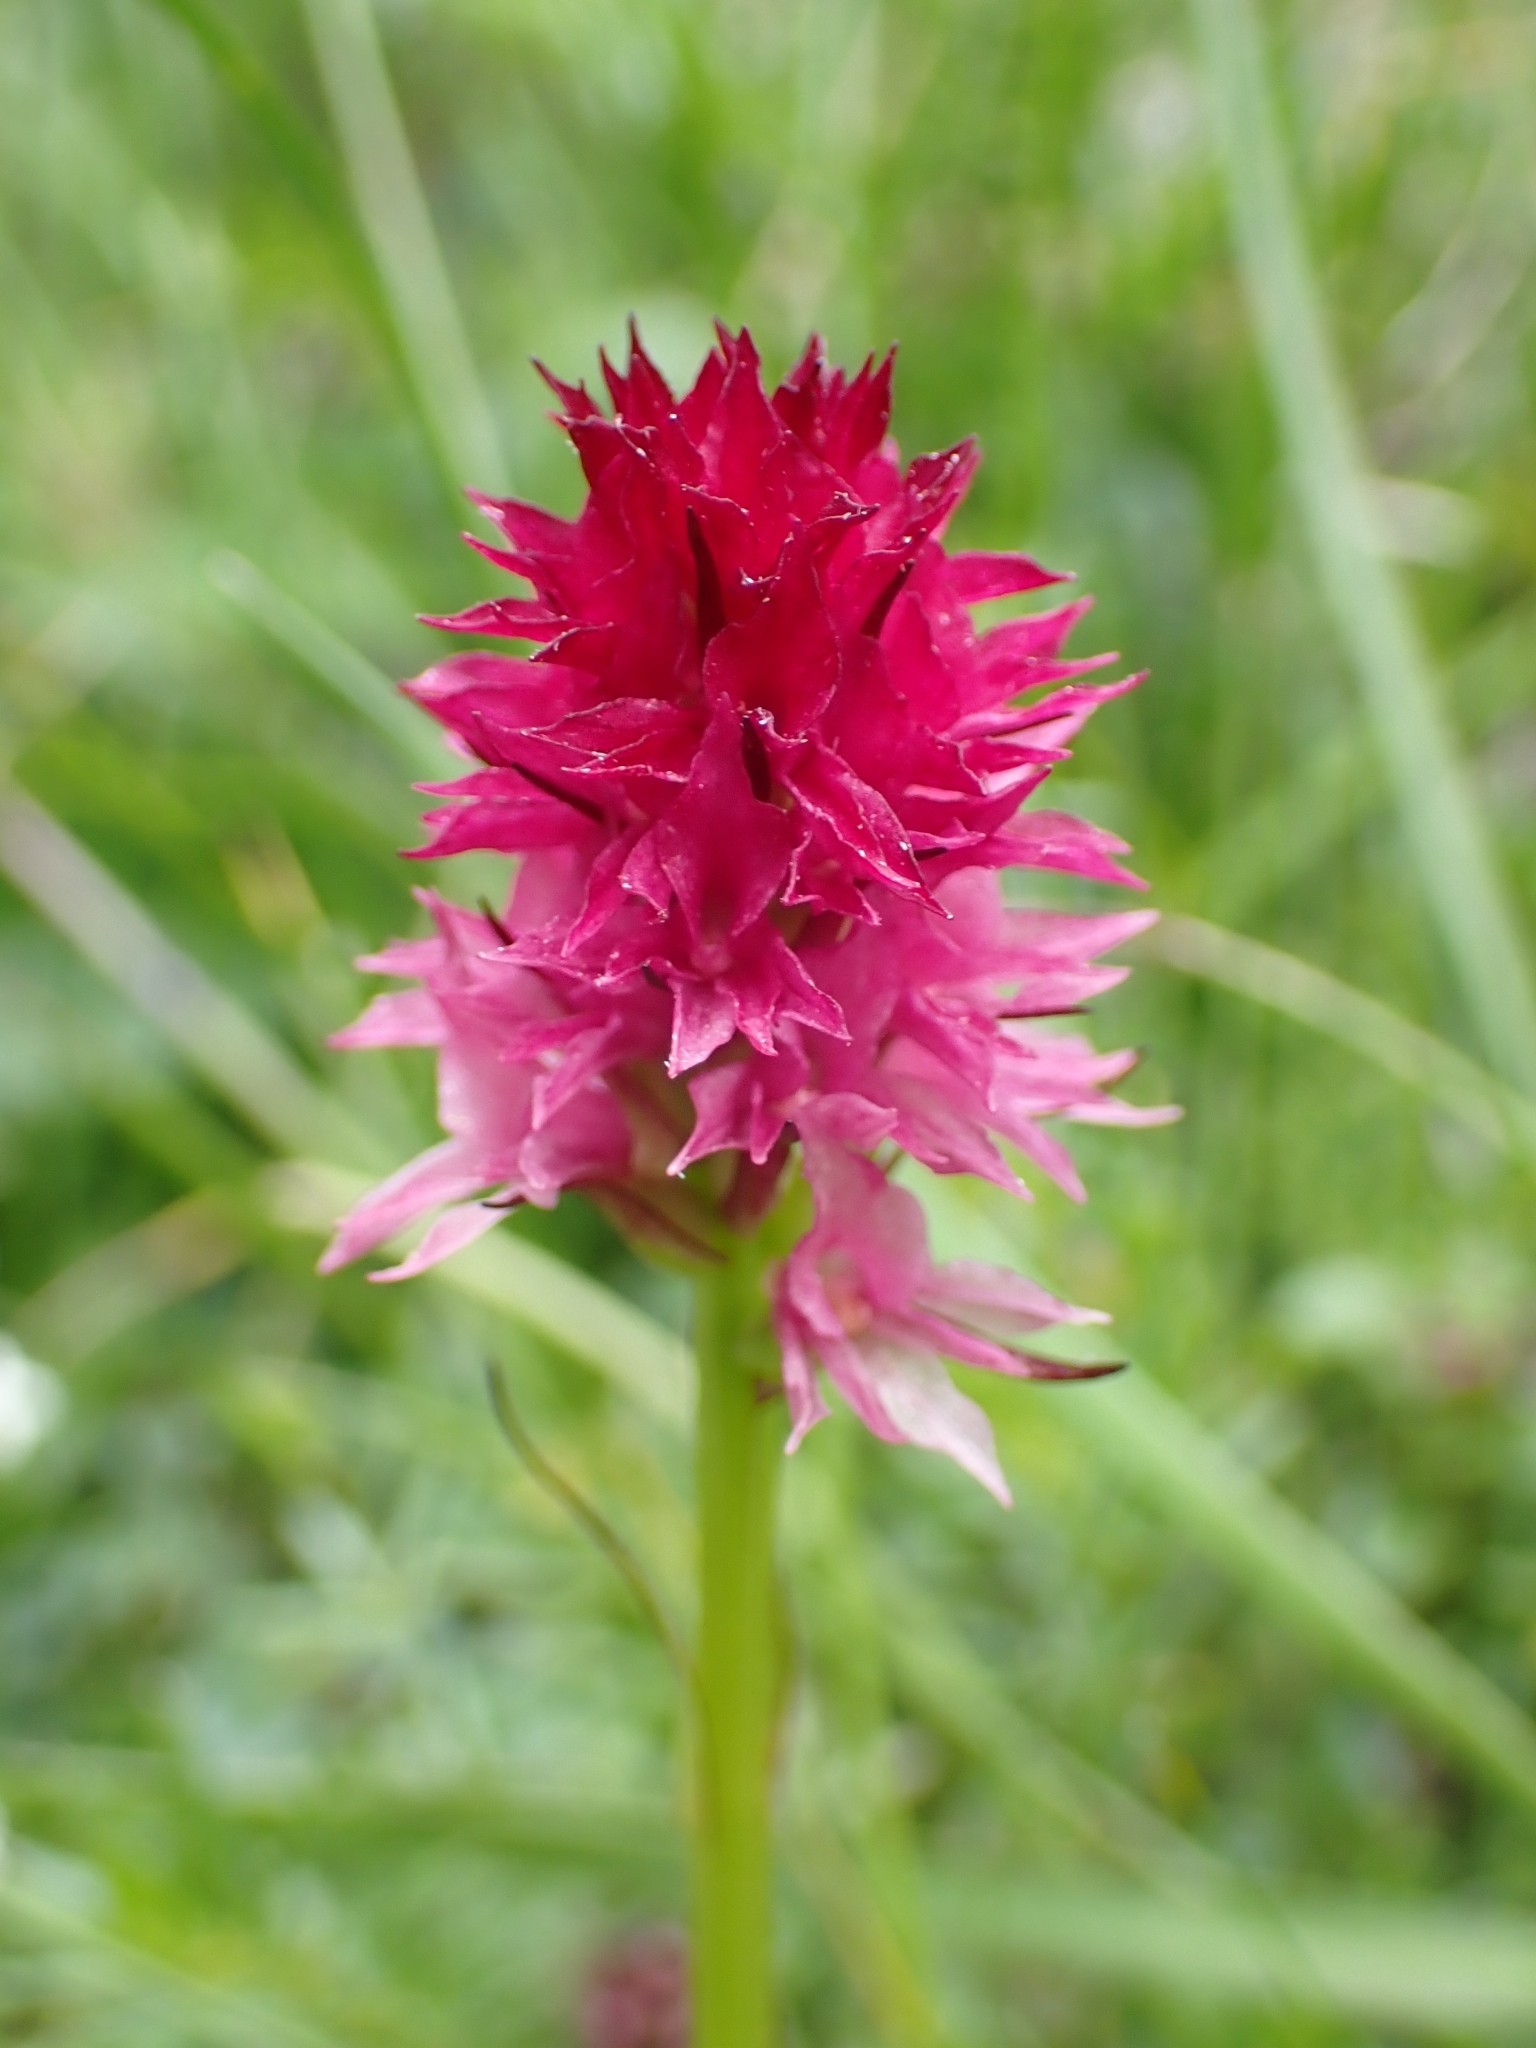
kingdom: Plantae
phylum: Tracheophyta
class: Liliopsida
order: Asparagales
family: Orchidaceae
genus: Gymnadenia
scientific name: Gymnadenia bicolor
